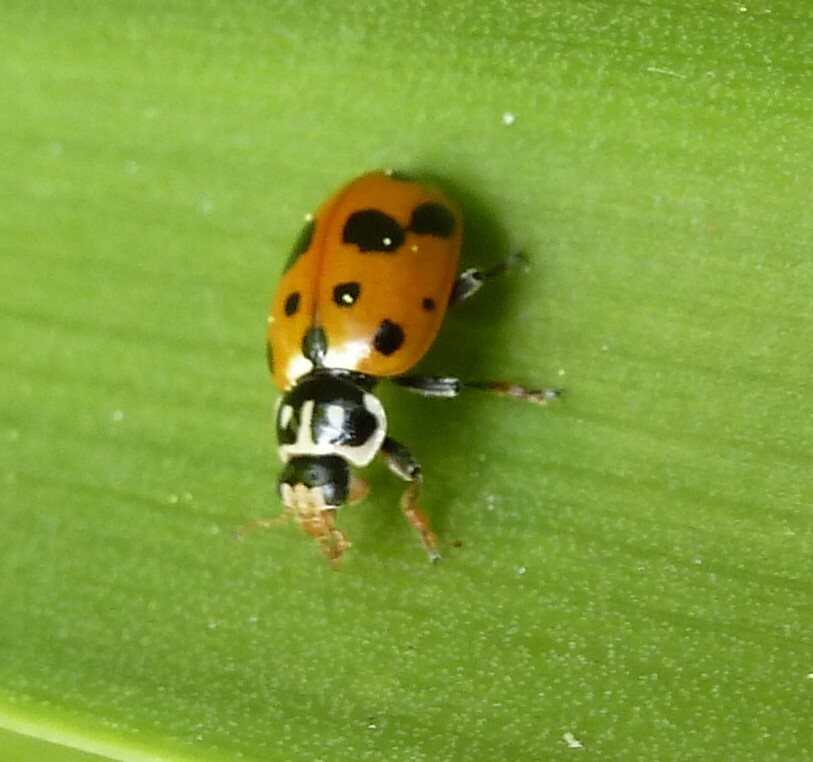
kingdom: Animalia
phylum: Arthropoda
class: Insecta
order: Coleoptera
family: Coccinellidae
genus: Hippodamia
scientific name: Hippodamia variegata
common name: Ladybird beetle
